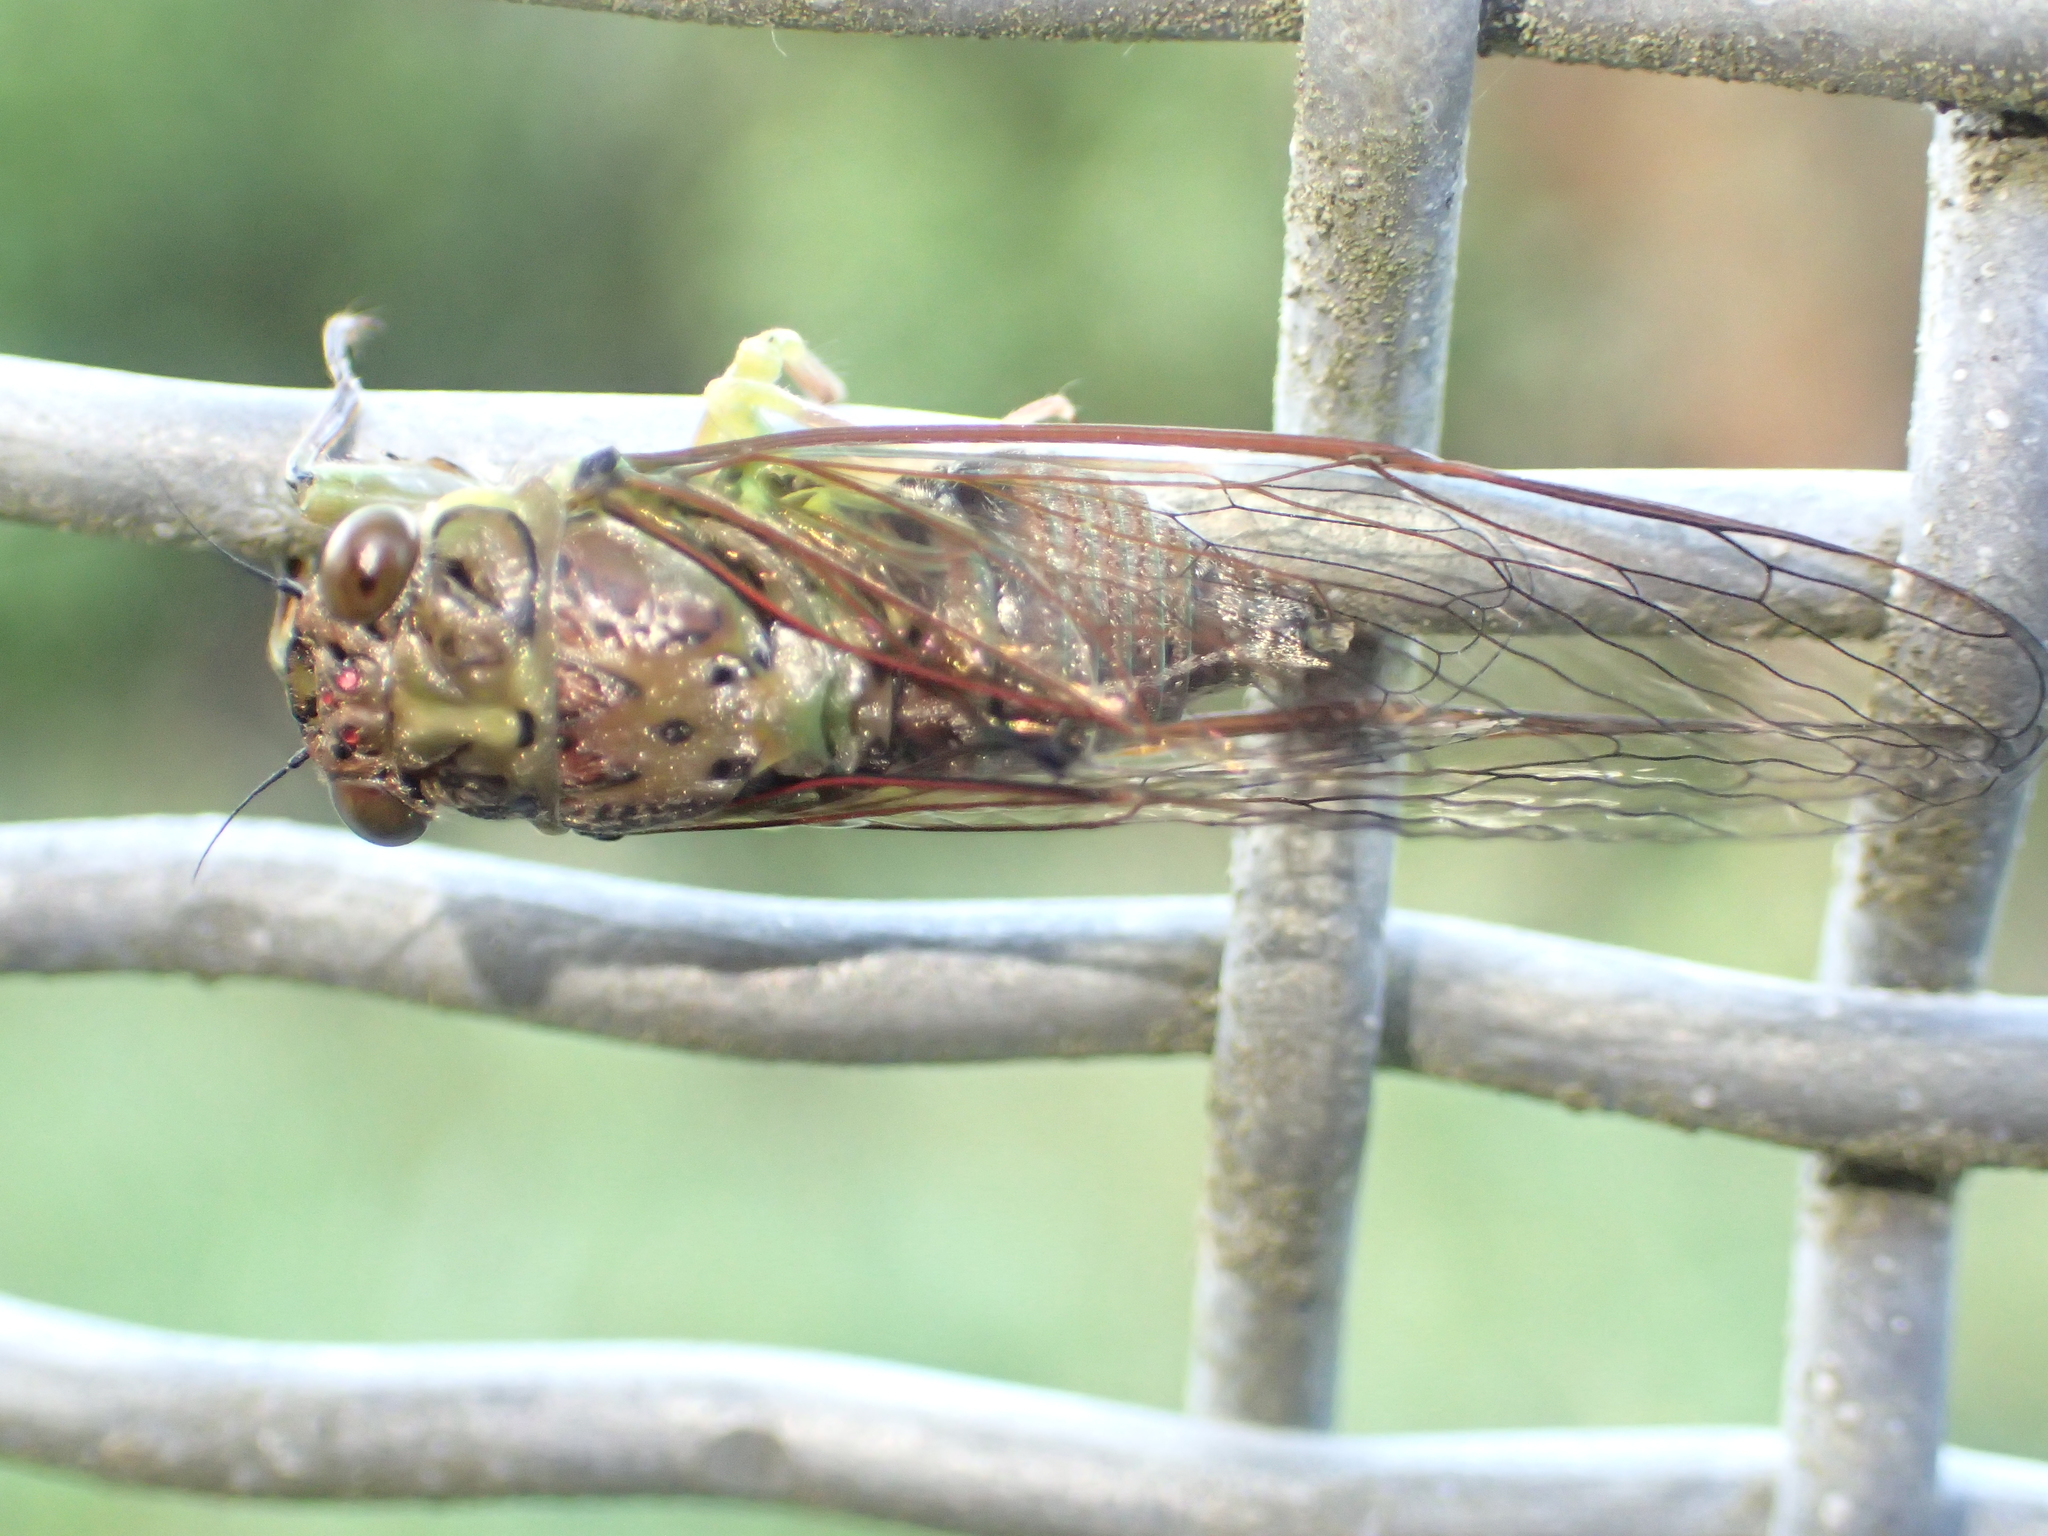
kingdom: Animalia
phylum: Arthropoda
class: Insecta
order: Hemiptera
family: Cicadidae
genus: Kikihia
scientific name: Kikihia scutellaris
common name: Lesser bronze cicada
